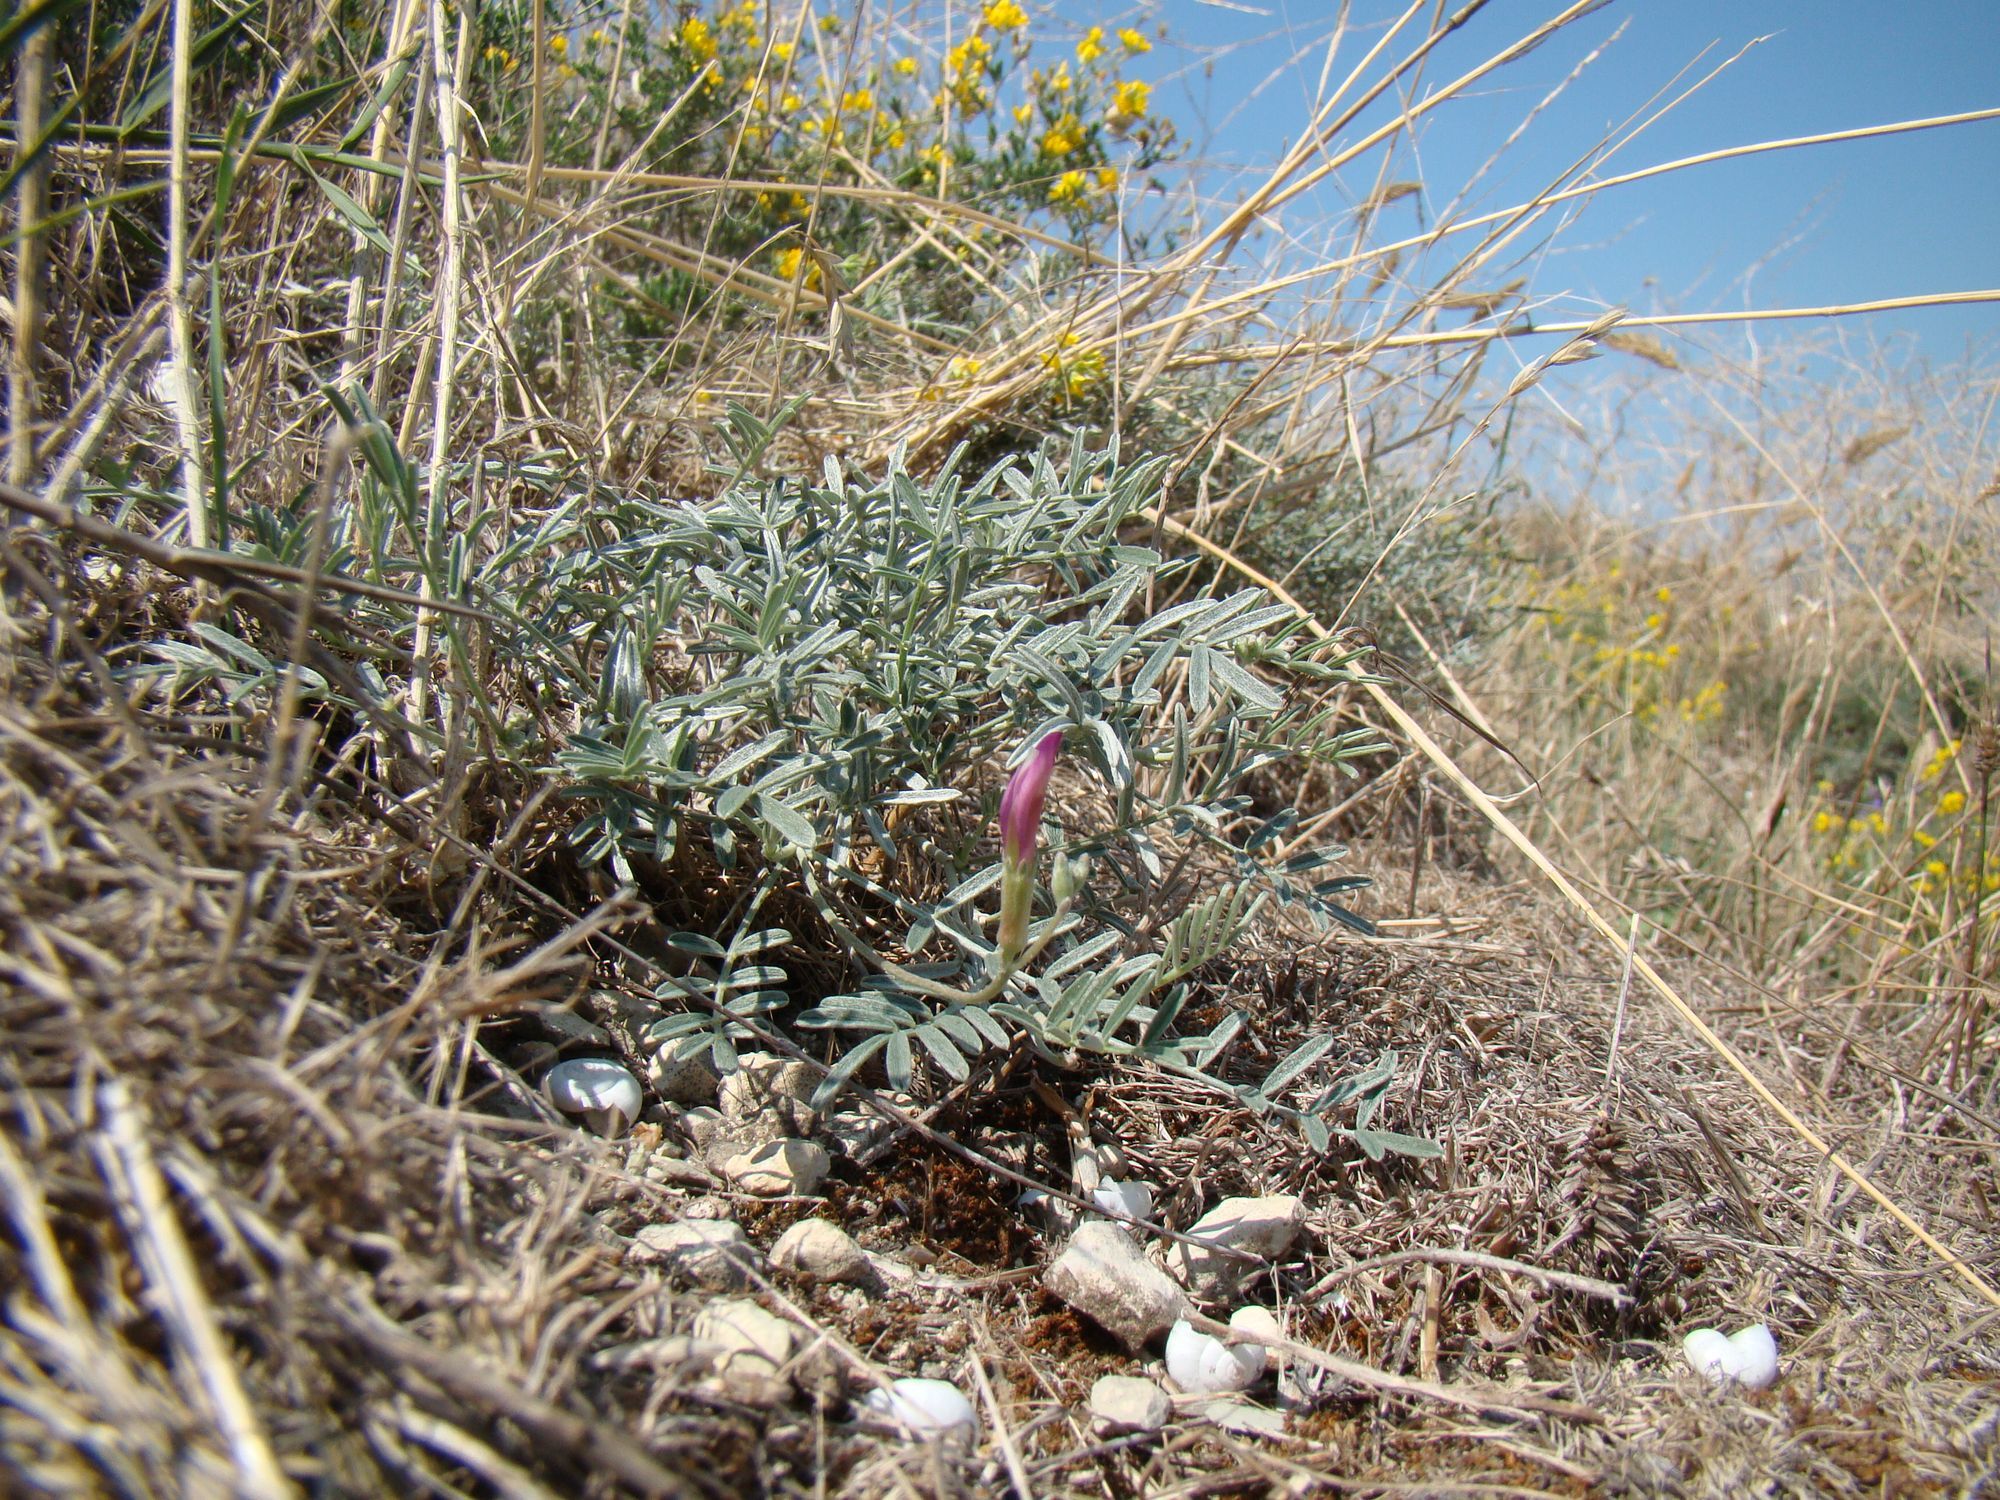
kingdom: Plantae
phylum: Tracheophyta
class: Magnoliopsida
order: Fabales
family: Fabaceae
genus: Astragalus
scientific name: Astragalus subuliformis
